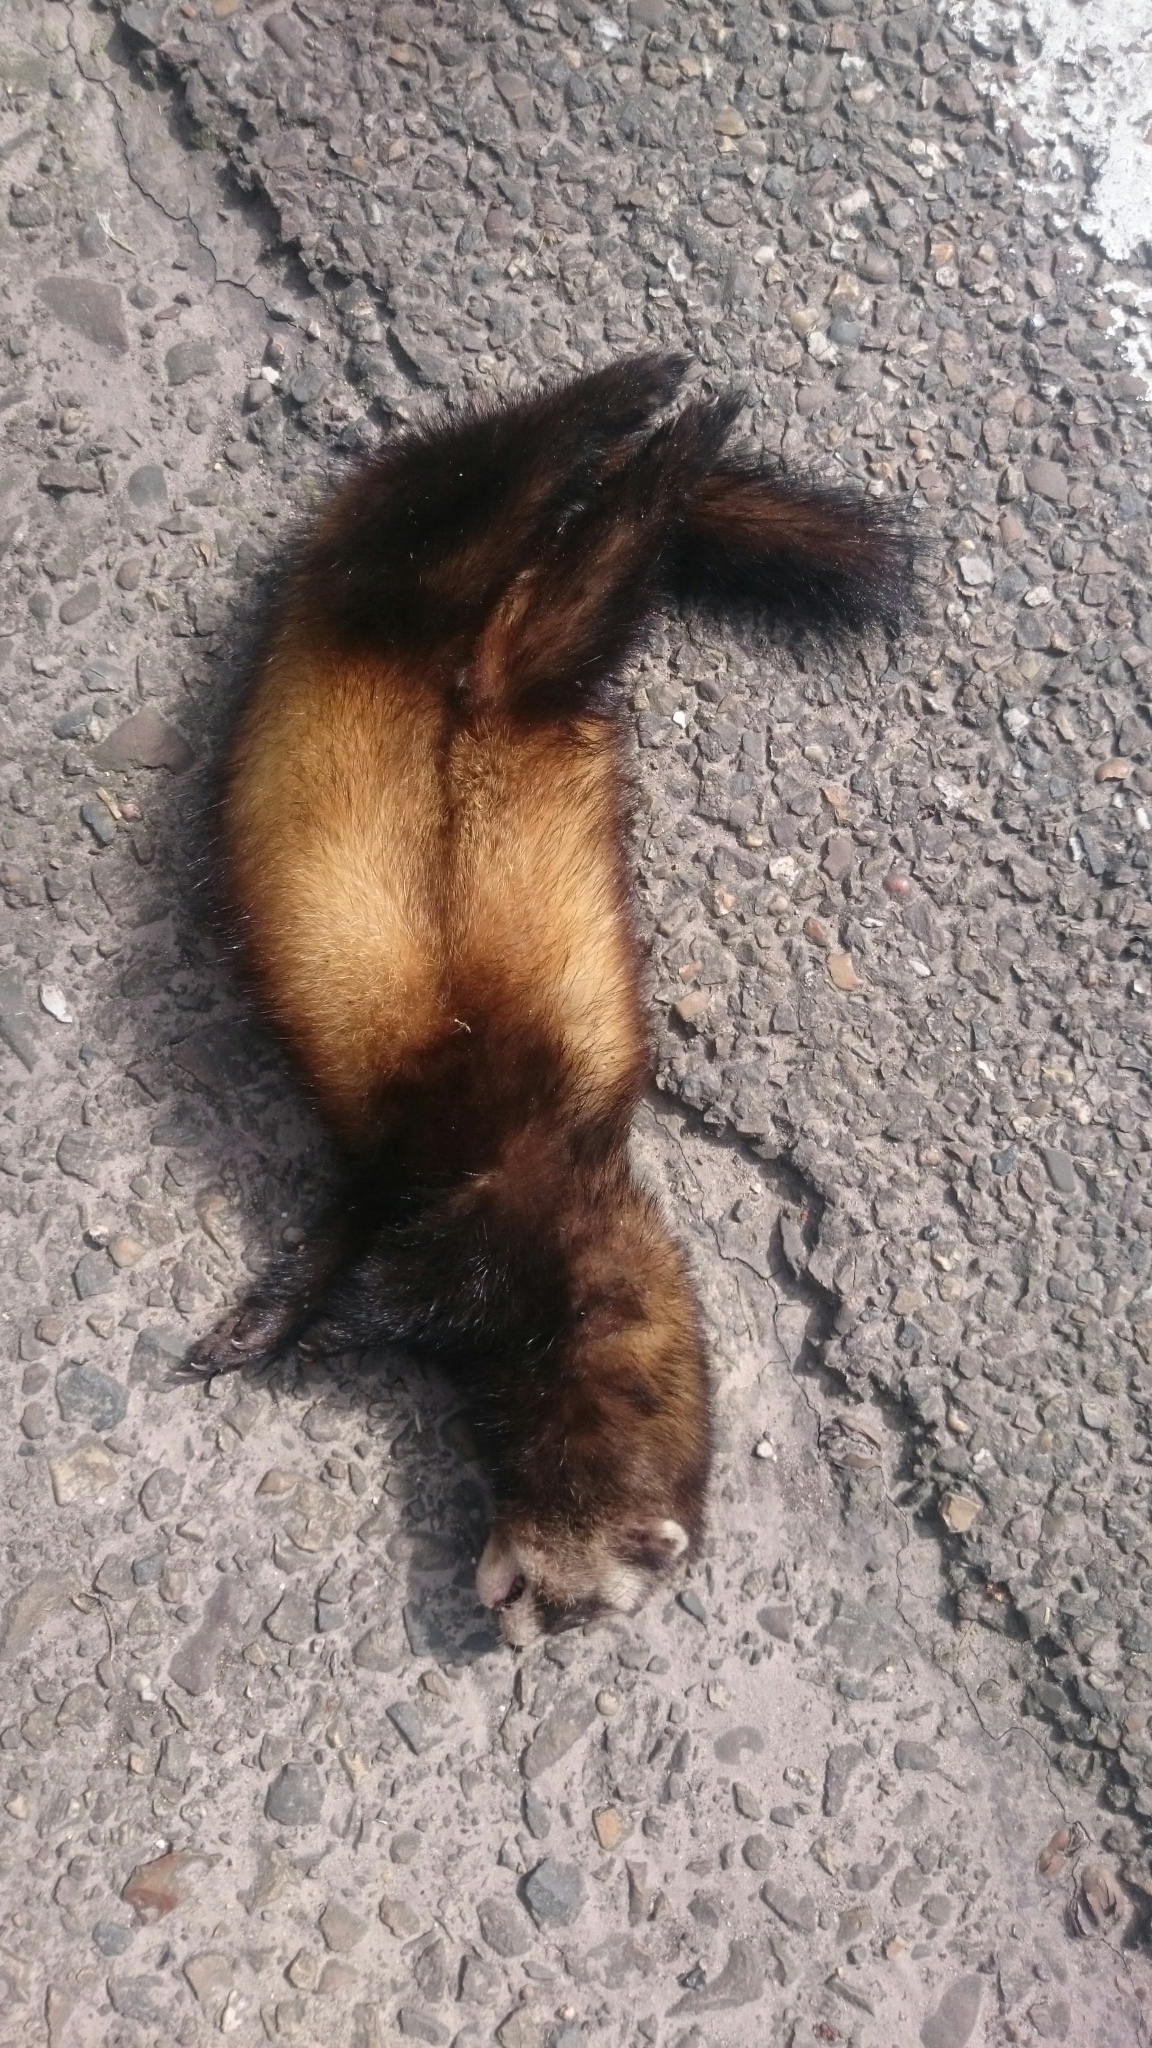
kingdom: Animalia
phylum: Chordata
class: Mammalia
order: Carnivora
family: Mustelidae
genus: Mustela
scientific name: Mustela putorius
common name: European polecat
